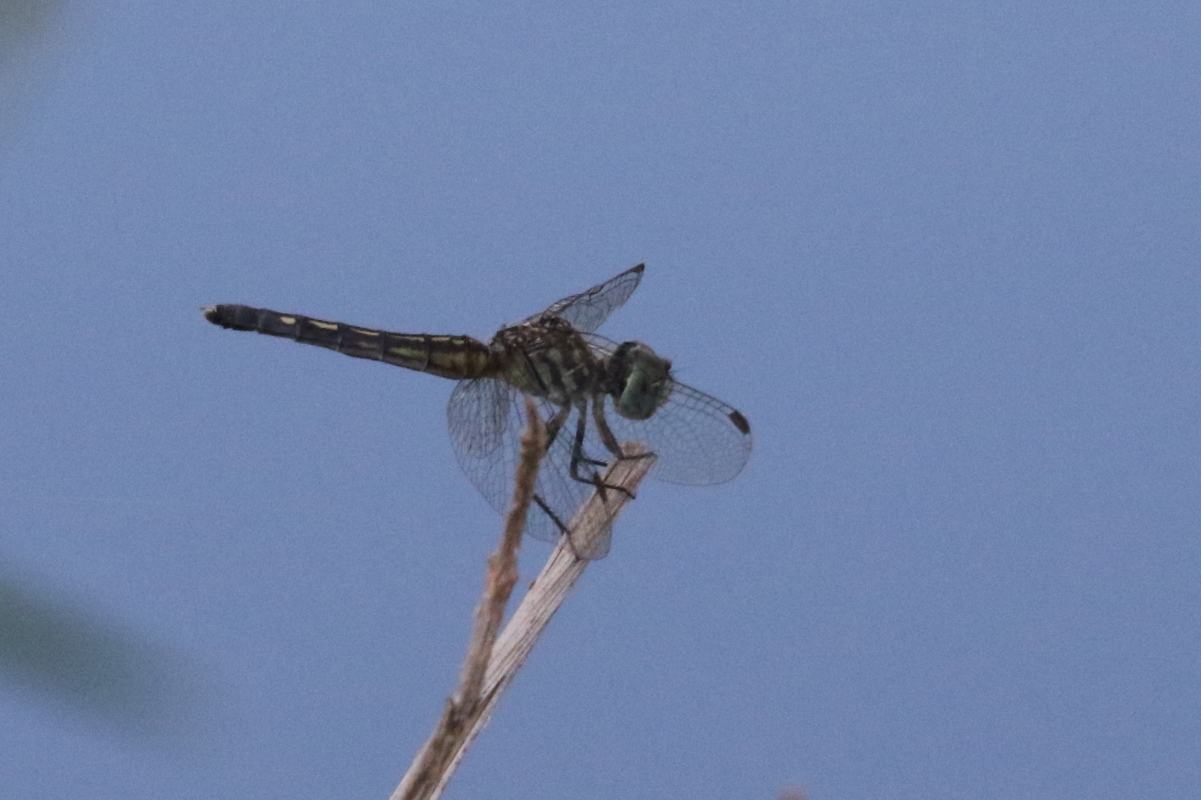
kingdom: Animalia
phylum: Arthropoda
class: Insecta
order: Odonata
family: Libellulidae
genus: Pachydiplax
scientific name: Pachydiplax longipennis
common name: Blue dasher
